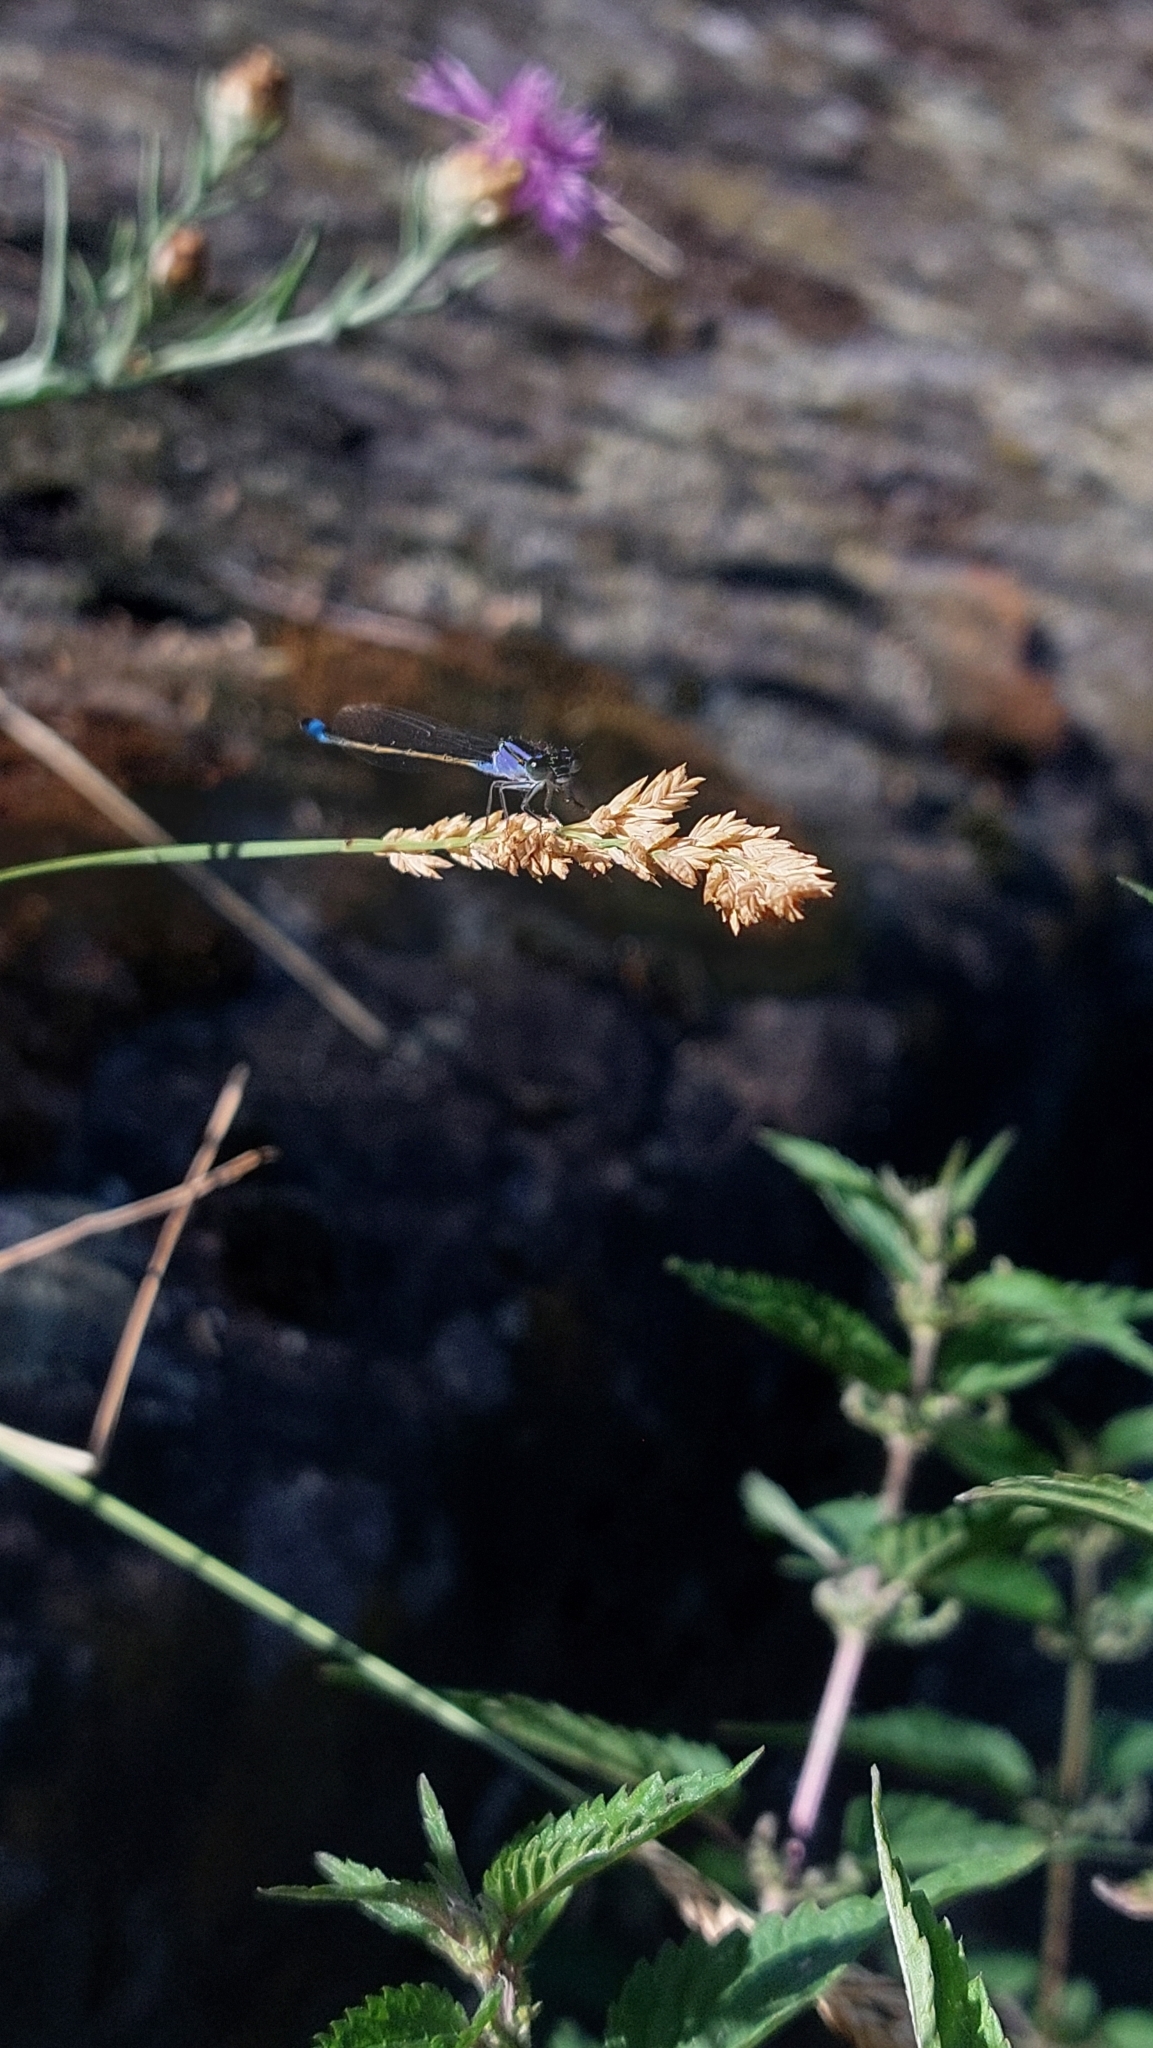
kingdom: Animalia
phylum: Arthropoda
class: Insecta
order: Odonata
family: Coenagrionidae
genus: Ischnura
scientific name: Ischnura elegans
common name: Blue-tailed damselfly
